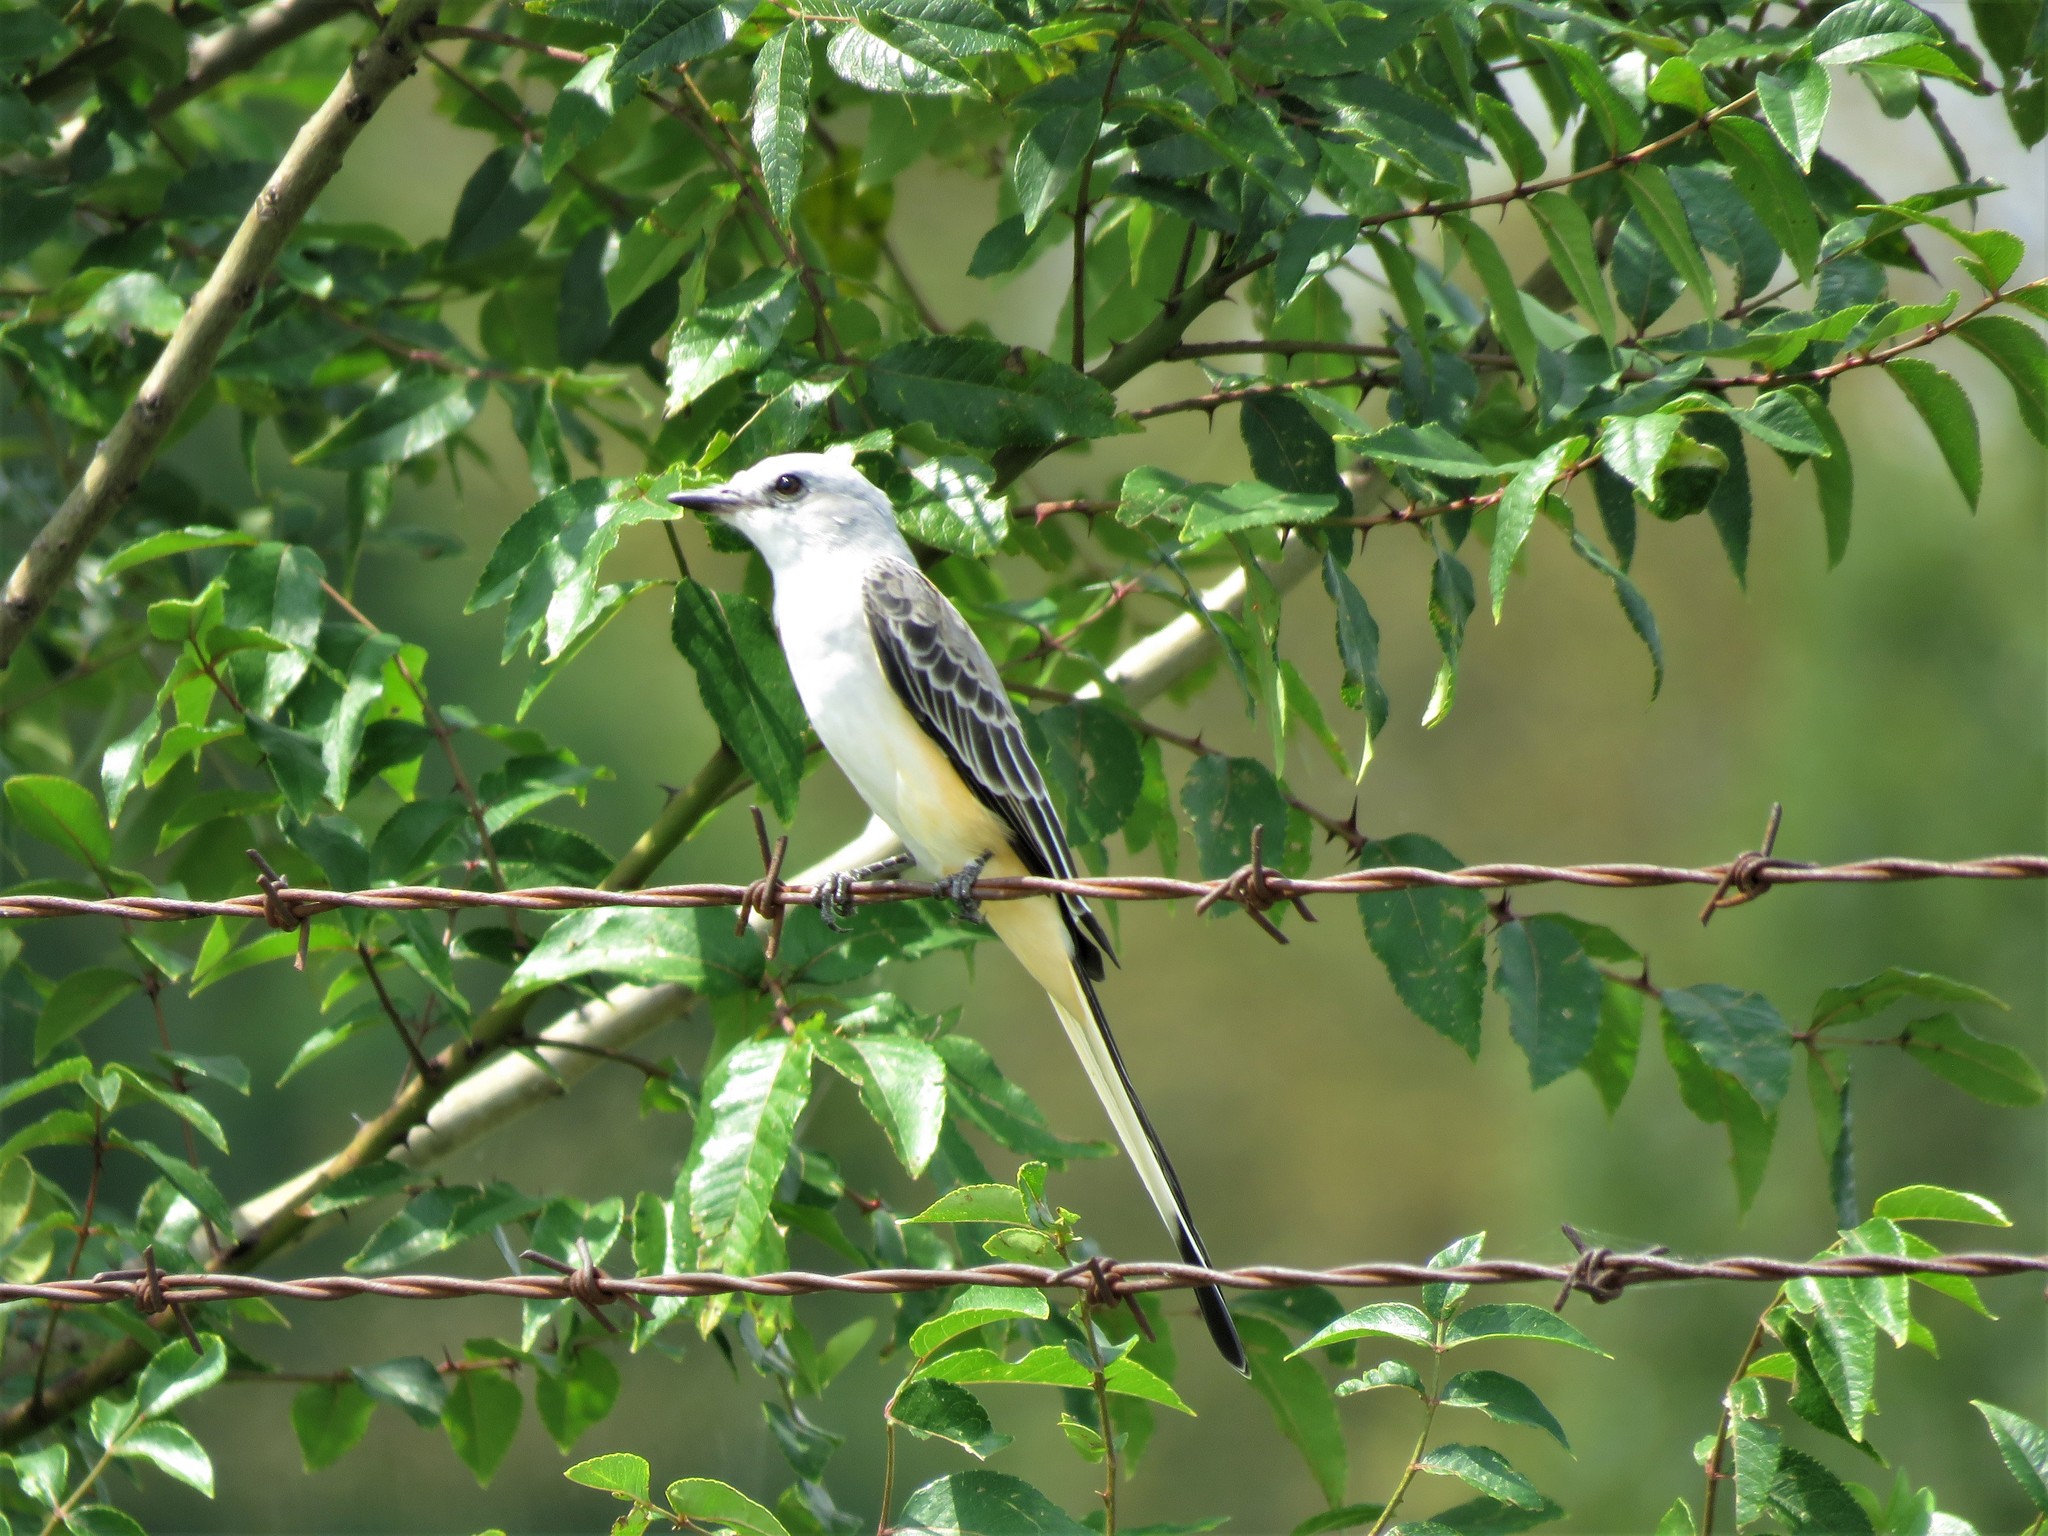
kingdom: Animalia
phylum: Chordata
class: Aves
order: Passeriformes
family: Tyrannidae
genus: Tyrannus
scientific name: Tyrannus forficatus
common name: Scissor-tailed flycatcher
